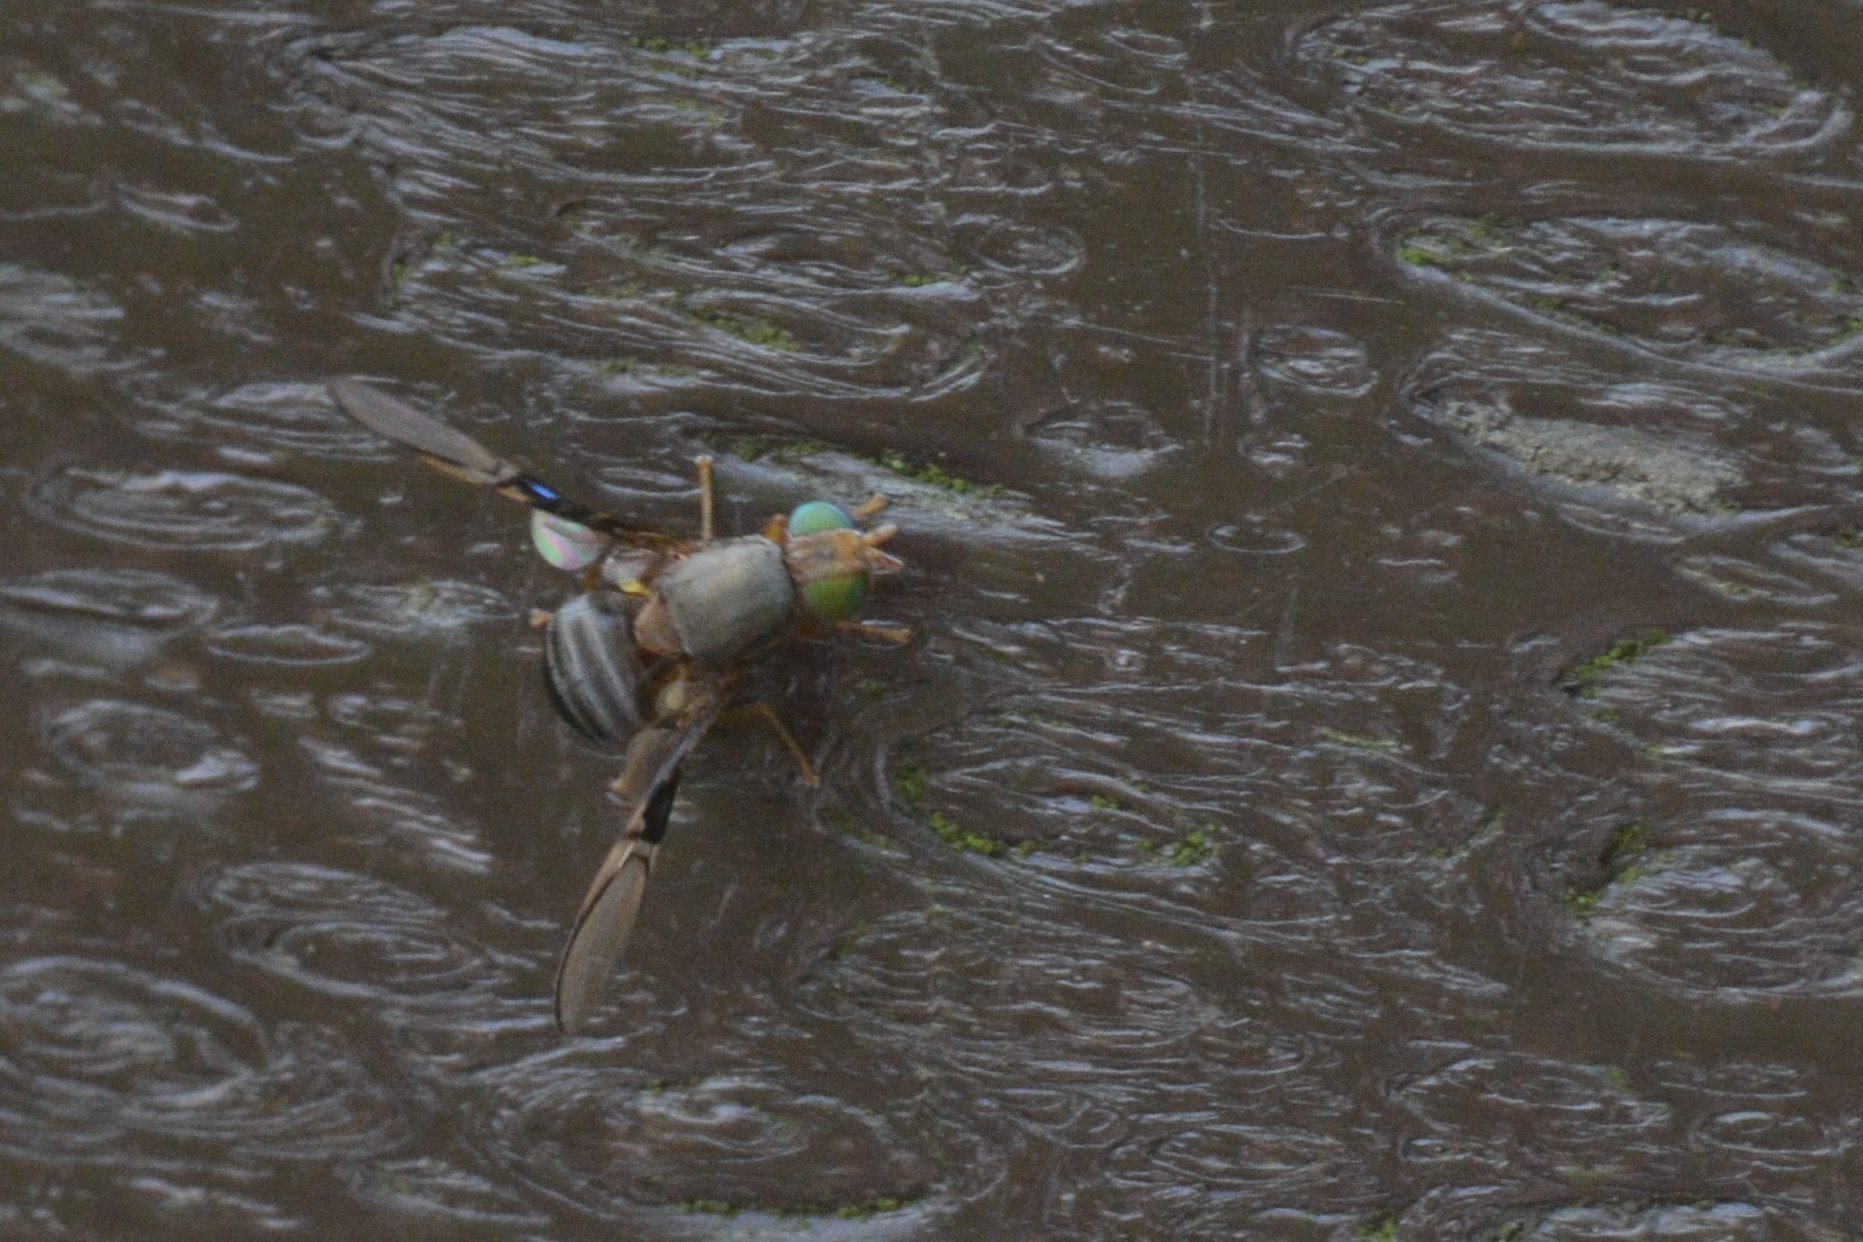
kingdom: Animalia
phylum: Arthropoda
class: Insecta
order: Diptera
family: Tephritidae
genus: Anomoia
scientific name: Anomoia purmunda
